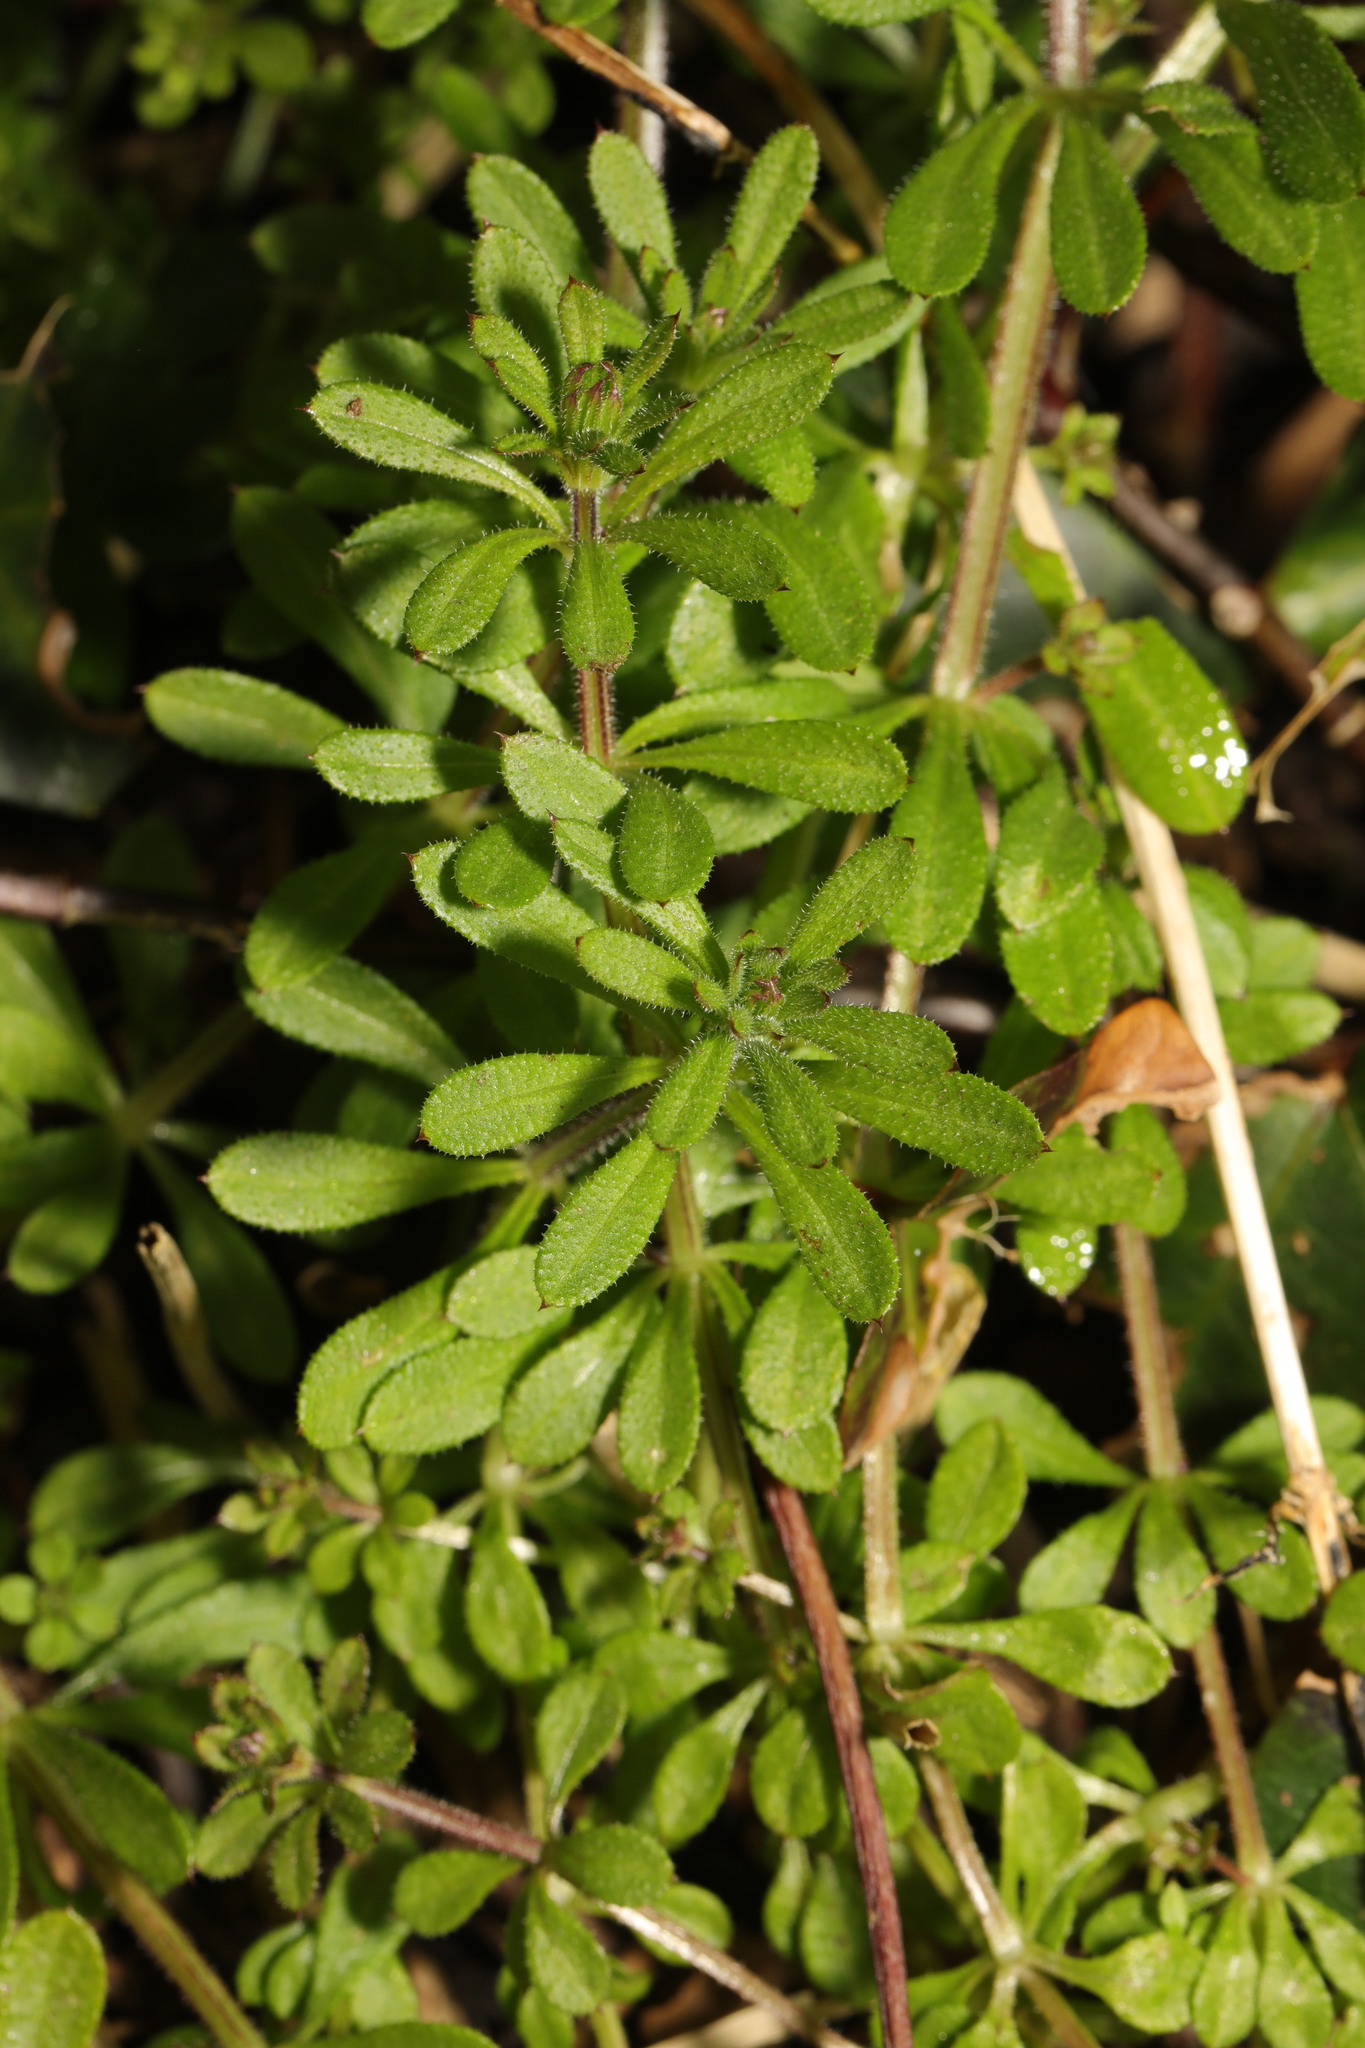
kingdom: Plantae
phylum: Tracheophyta
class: Magnoliopsida
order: Gentianales
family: Rubiaceae
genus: Galium
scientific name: Galium aparine
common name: Cleavers
